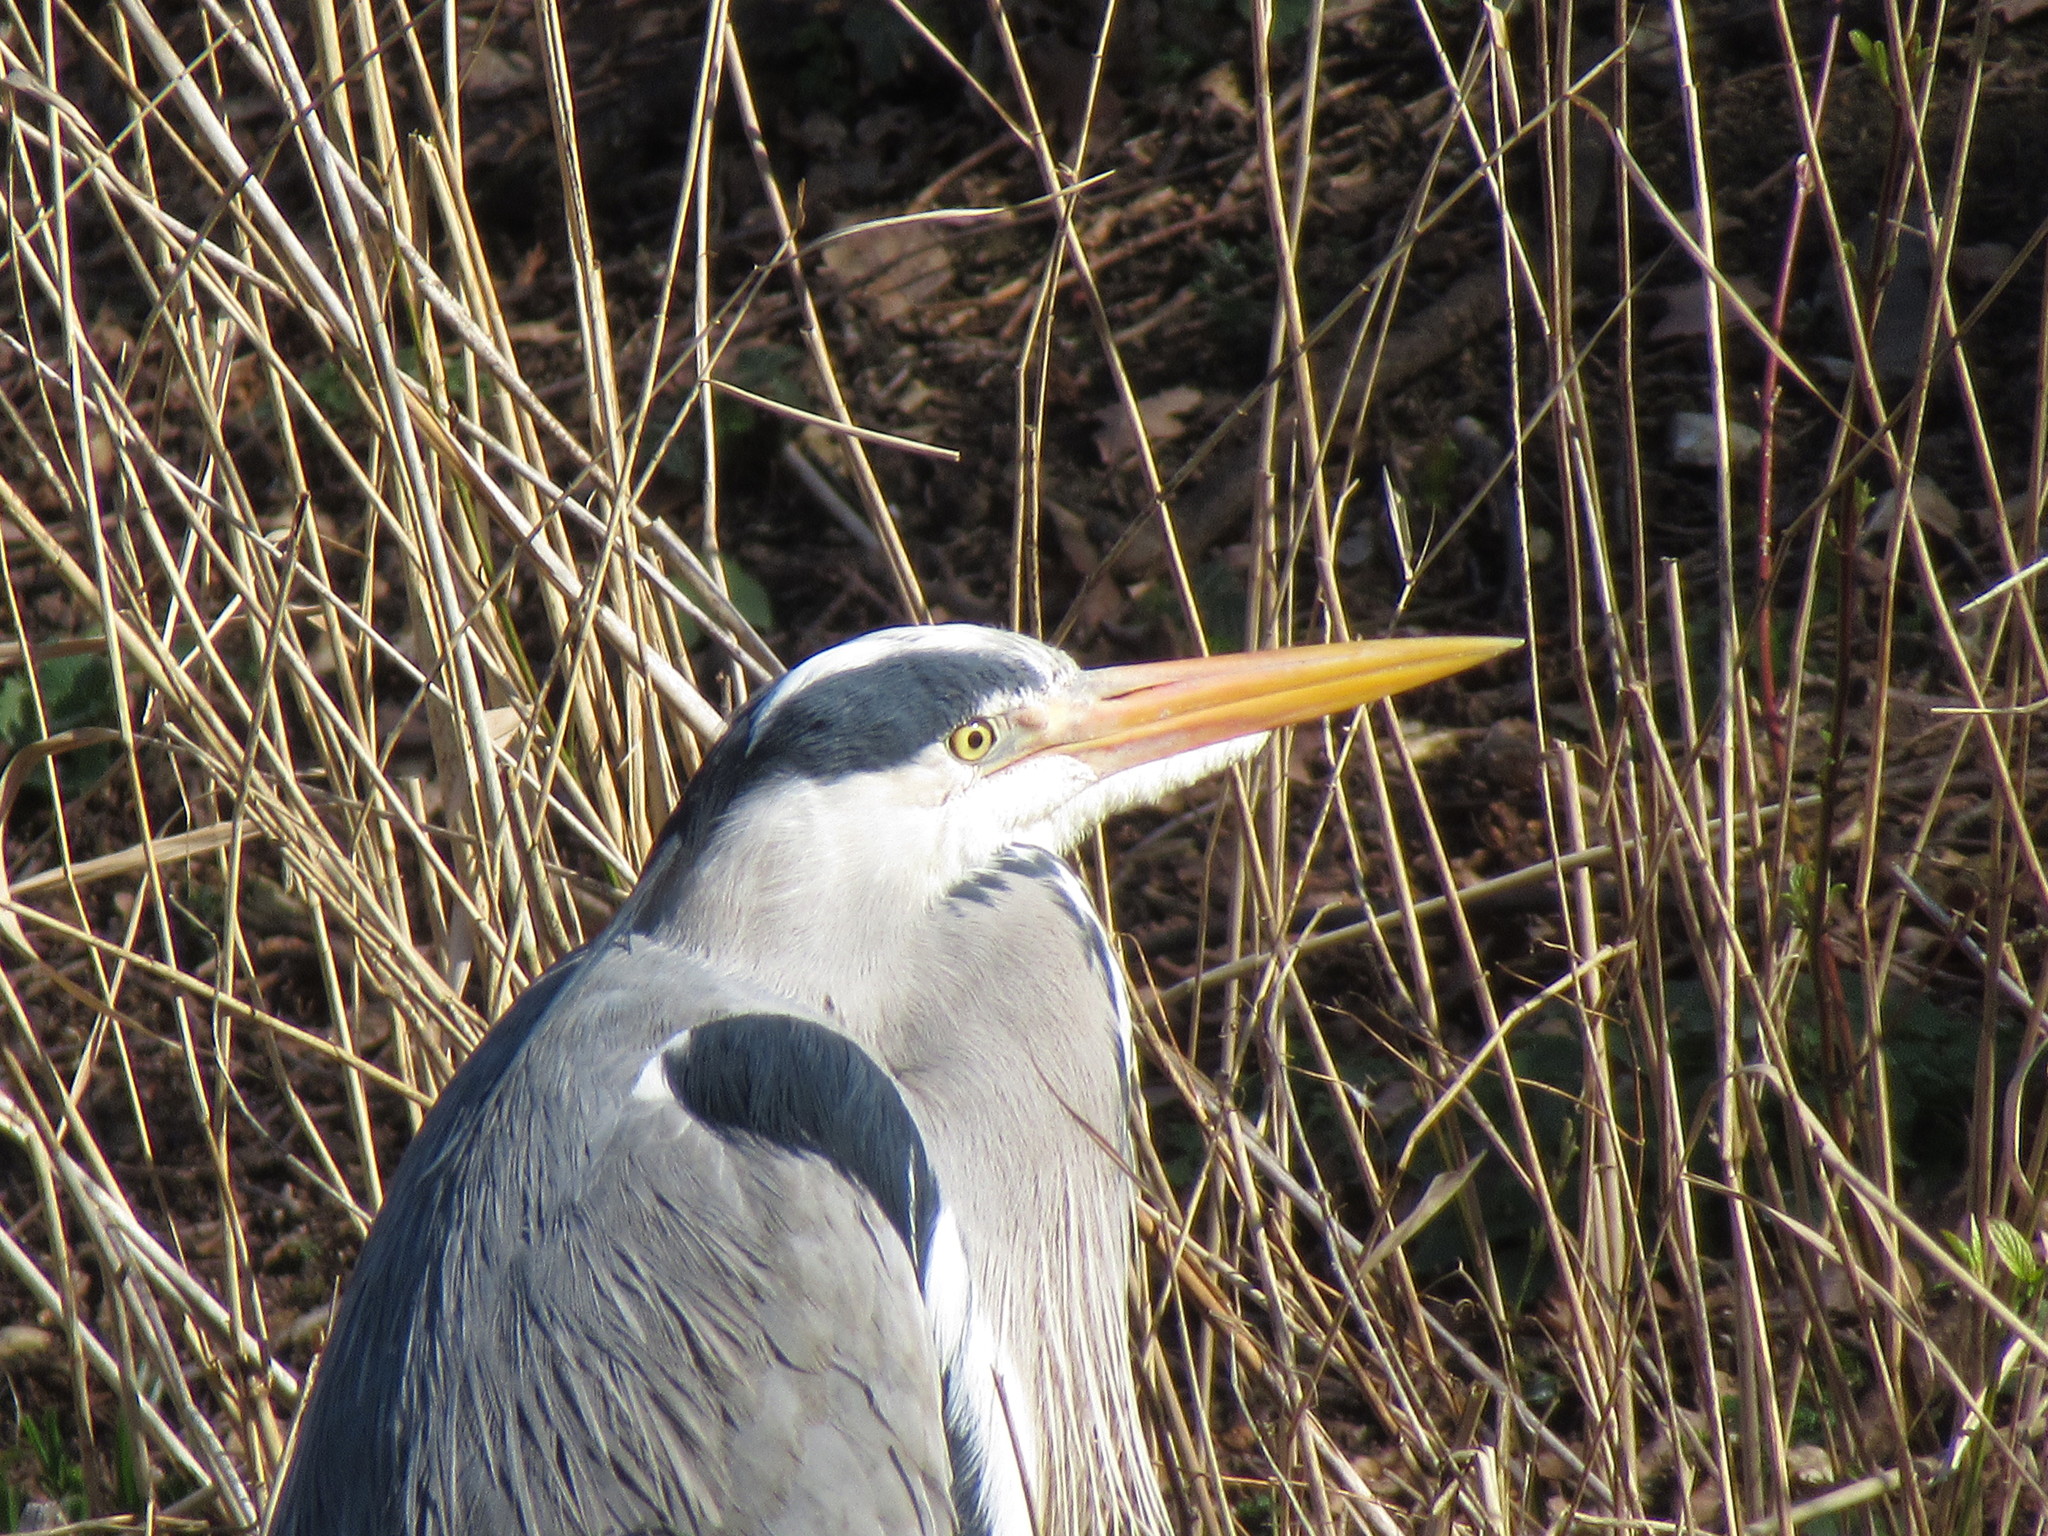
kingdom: Animalia
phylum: Chordata
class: Aves
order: Pelecaniformes
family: Ardeidae
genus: Ardea
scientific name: Ardea cinerea
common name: Grey heron
